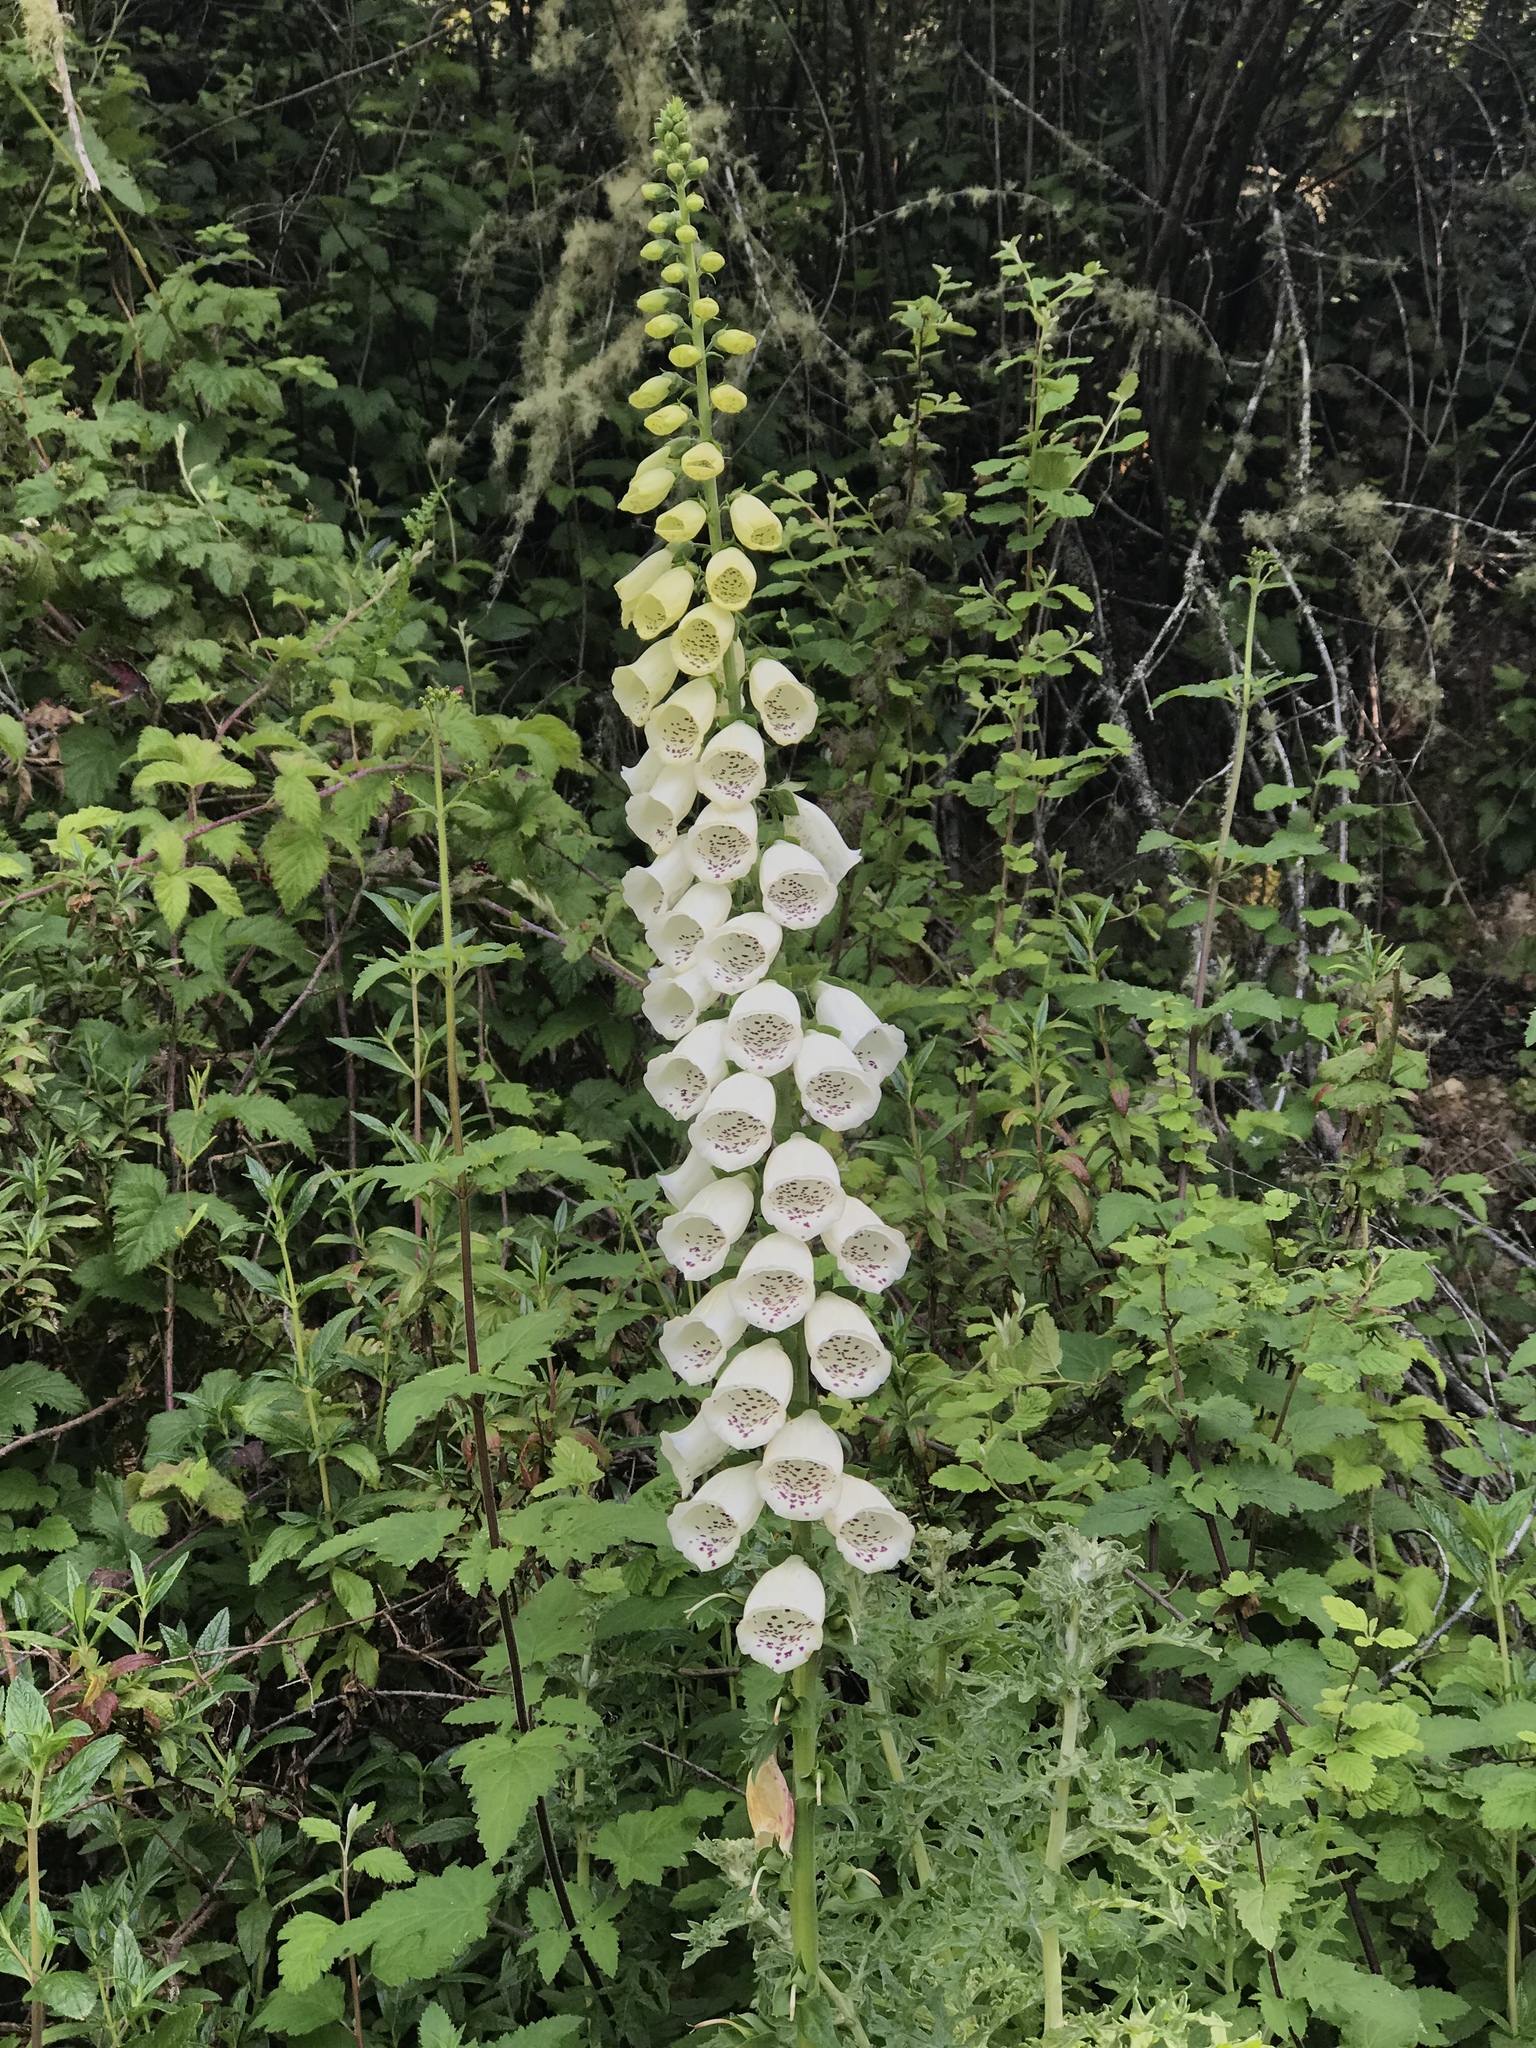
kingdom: Plantae
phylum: Tracheophyta
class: Magnoliopsida
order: Lamiales
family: Plantaginaceae
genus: Digitalis
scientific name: Digitalis purpurea
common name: Foxglove
